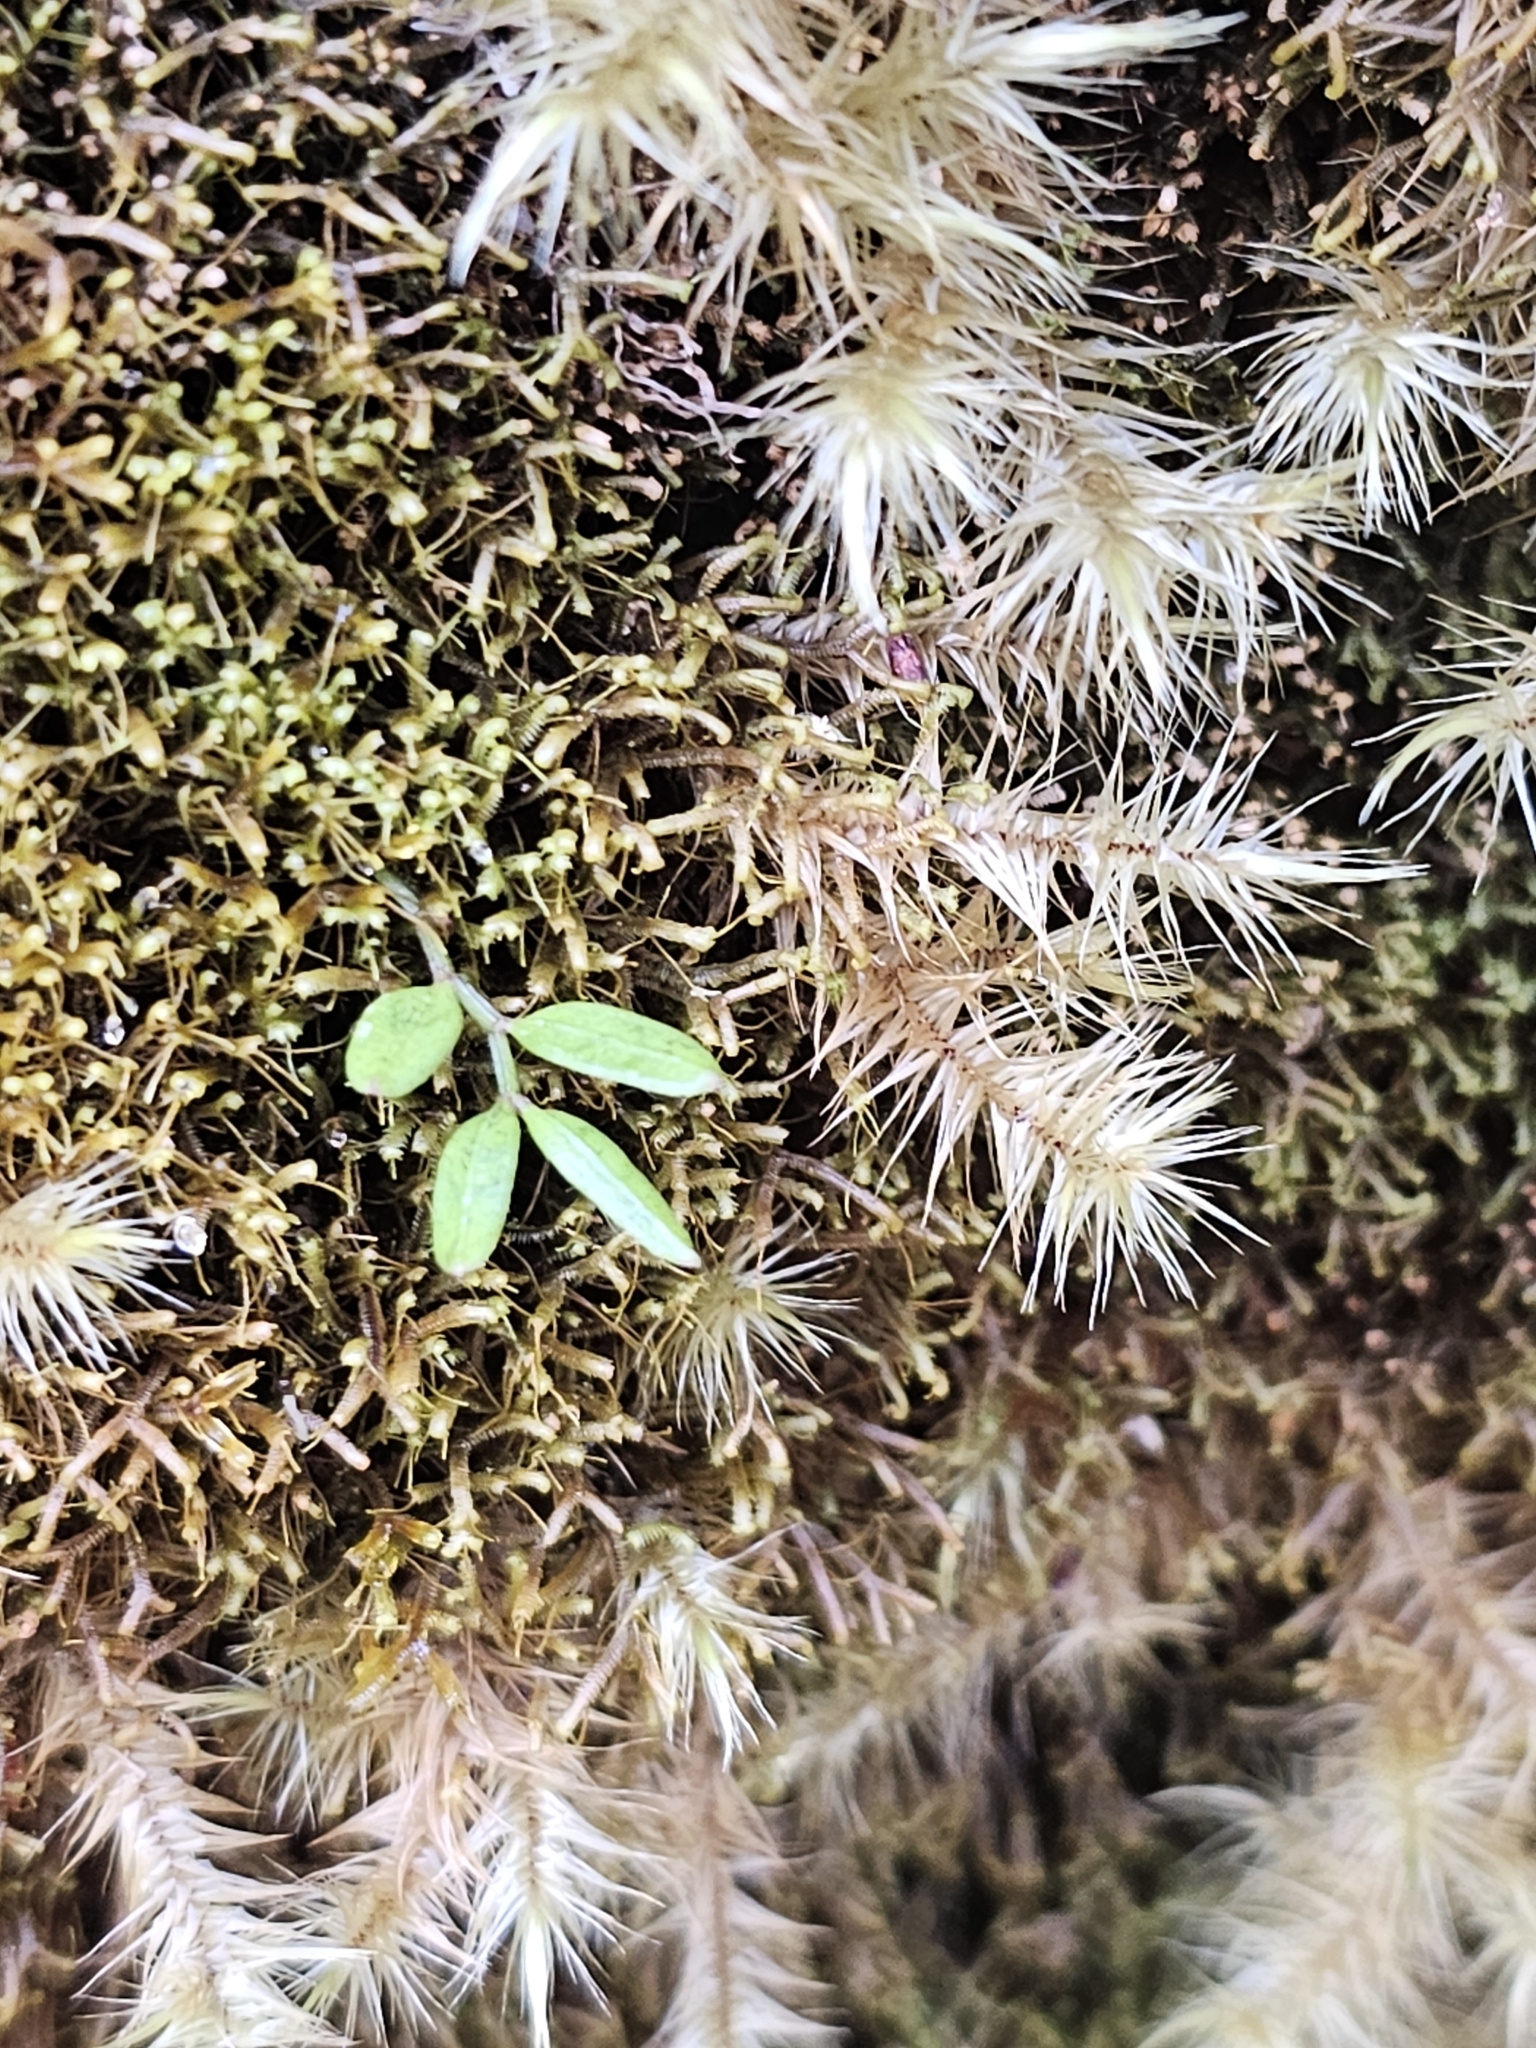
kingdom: Plantae
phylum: Tracheophyta
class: Liliopsida
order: Liliales
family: Alstroemeriaceae
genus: Luzuriaga
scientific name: Luzuriaga parviflora
